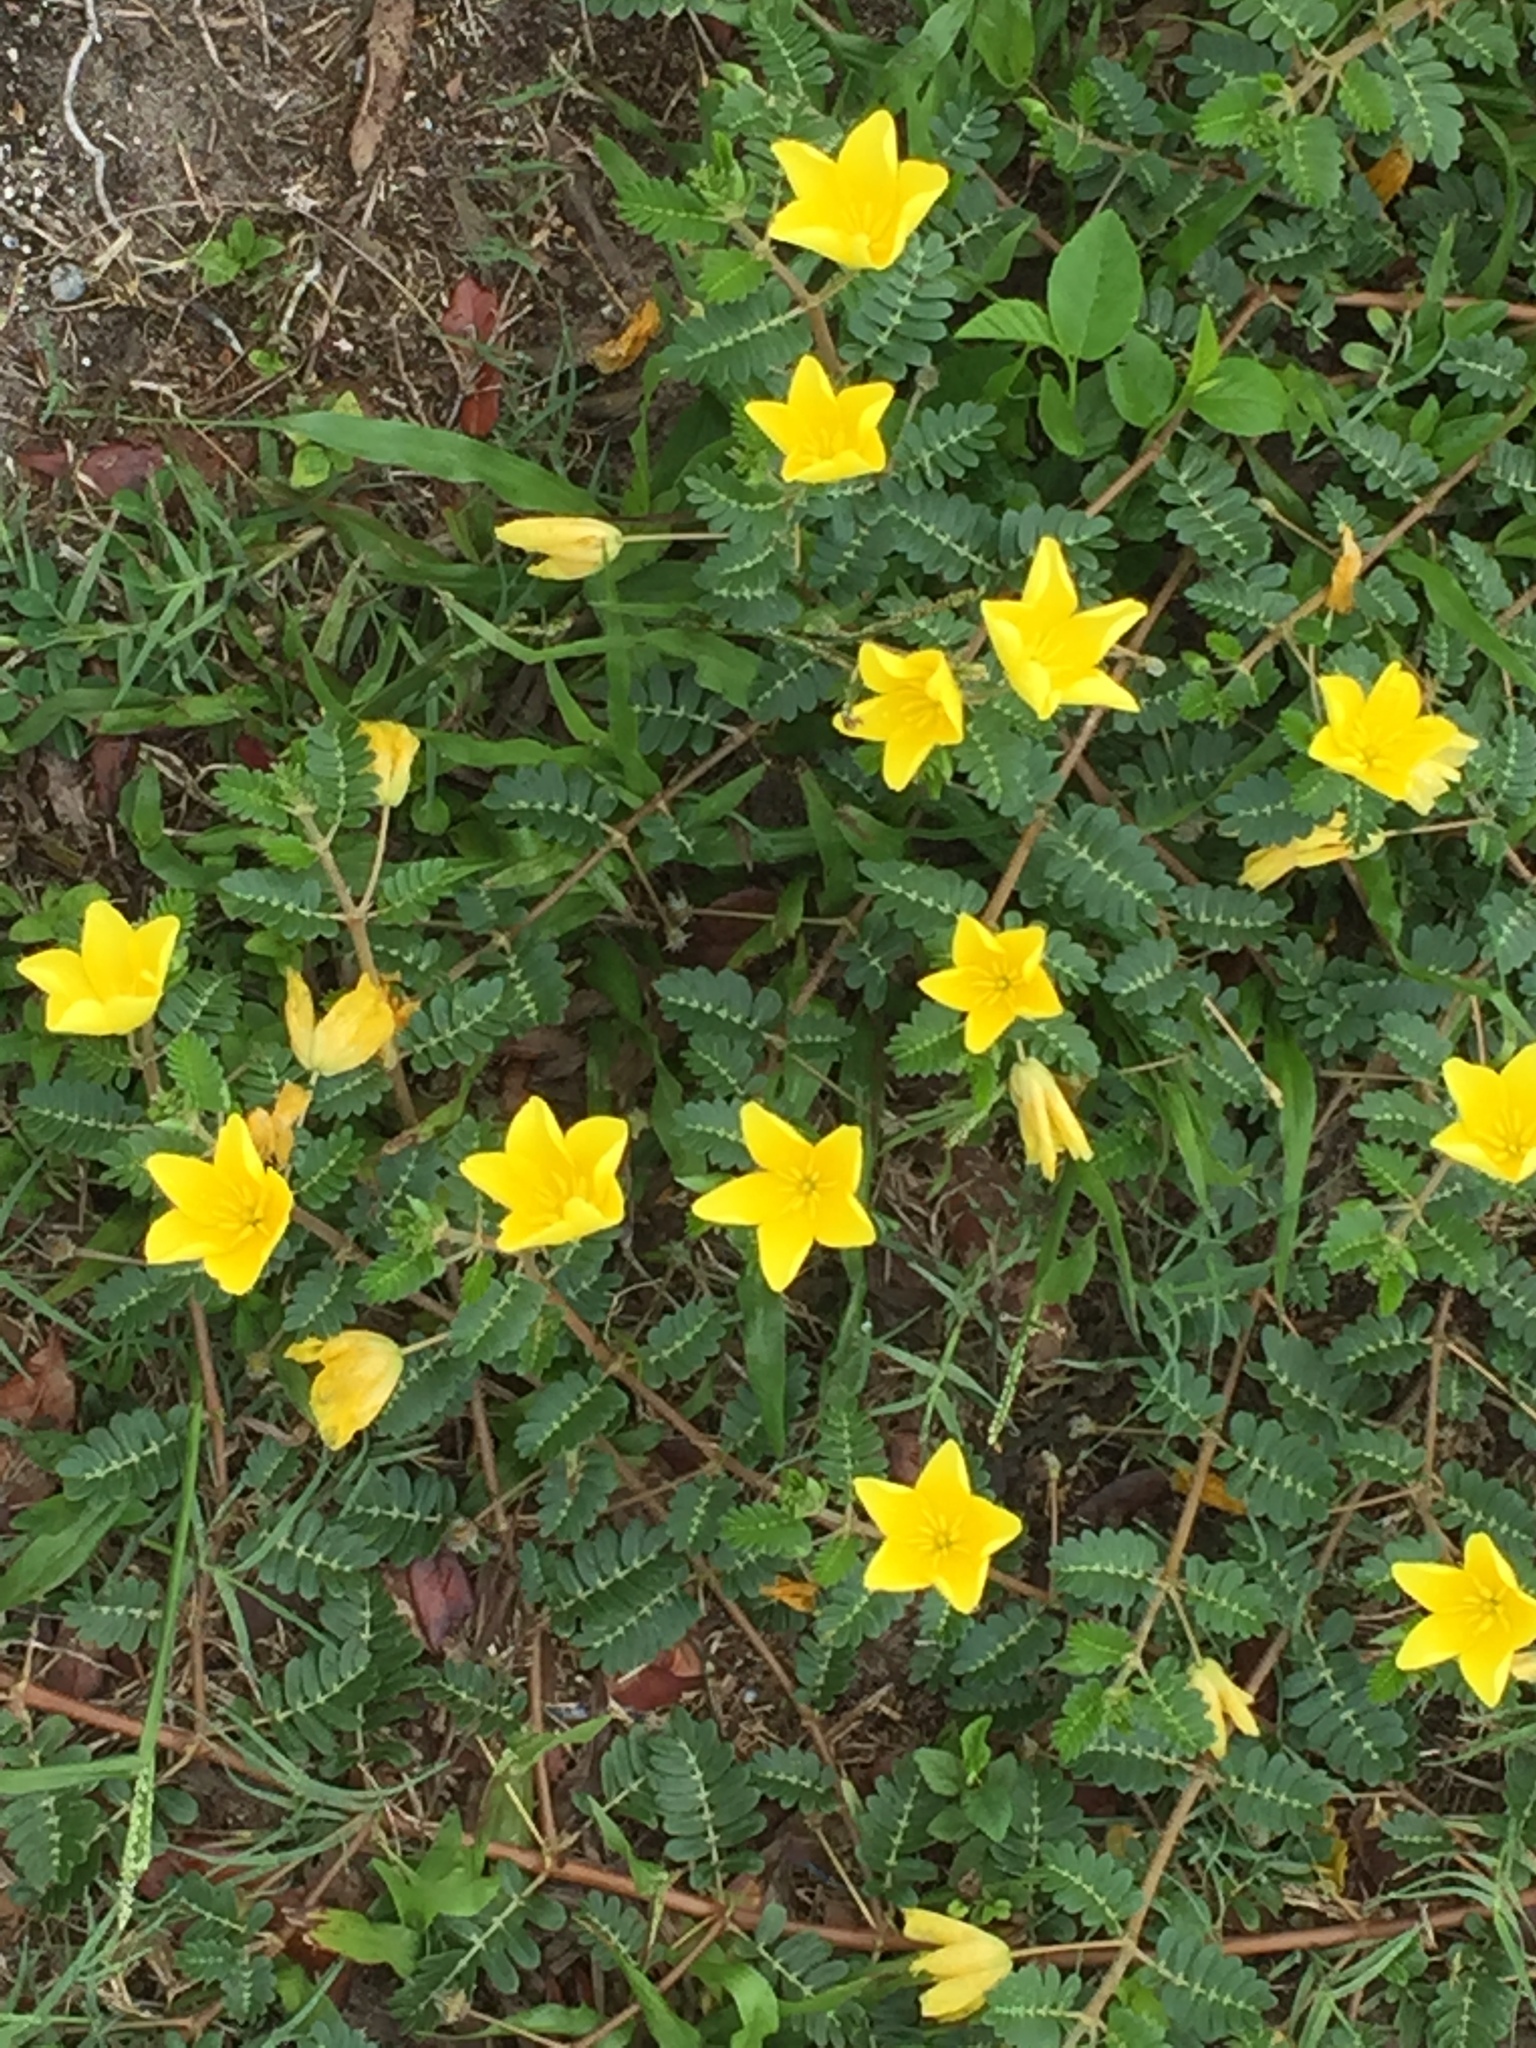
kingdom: Plantae
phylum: Tracheophyta
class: Magnoliopsida
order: Zygophyllales
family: Zygophyllaceae
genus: Tribulus
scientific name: Tribulus cistoides
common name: Jamaican feverplant
